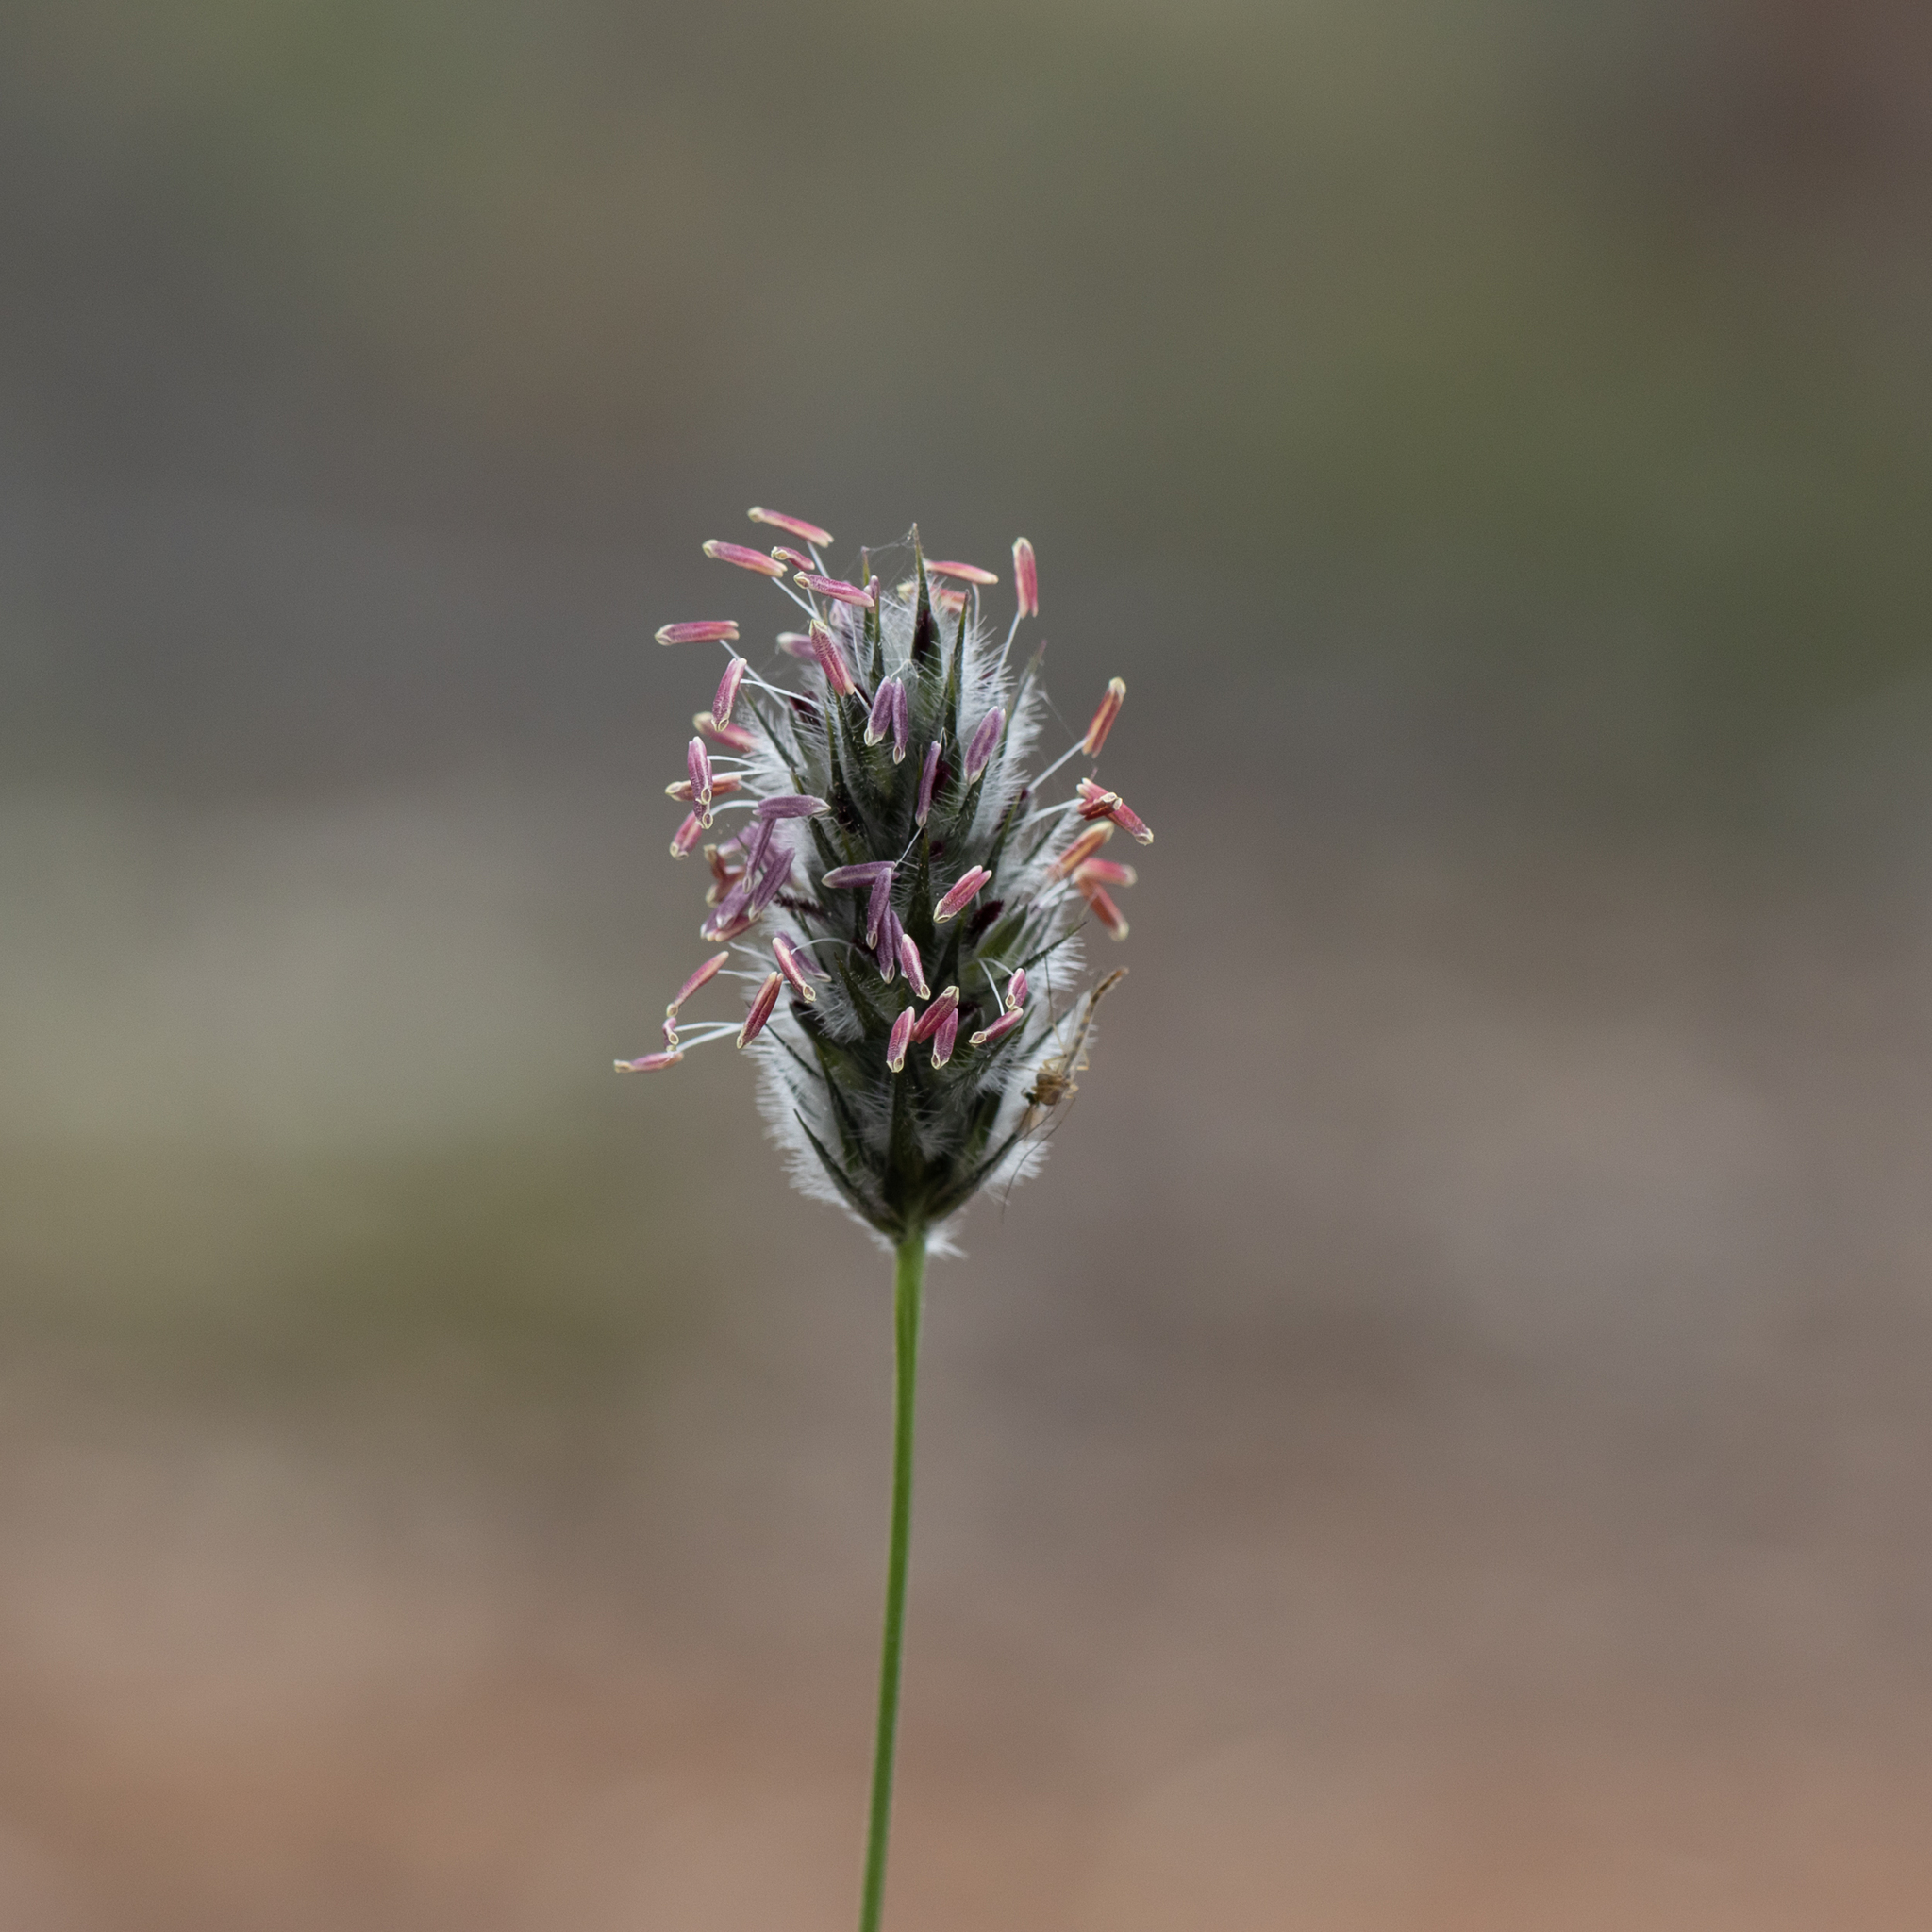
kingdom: Plantae
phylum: Tracheophyta
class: Liliopsida
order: Poales
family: Poaceae
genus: Neurachne
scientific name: Neurachne alopecuroidea
